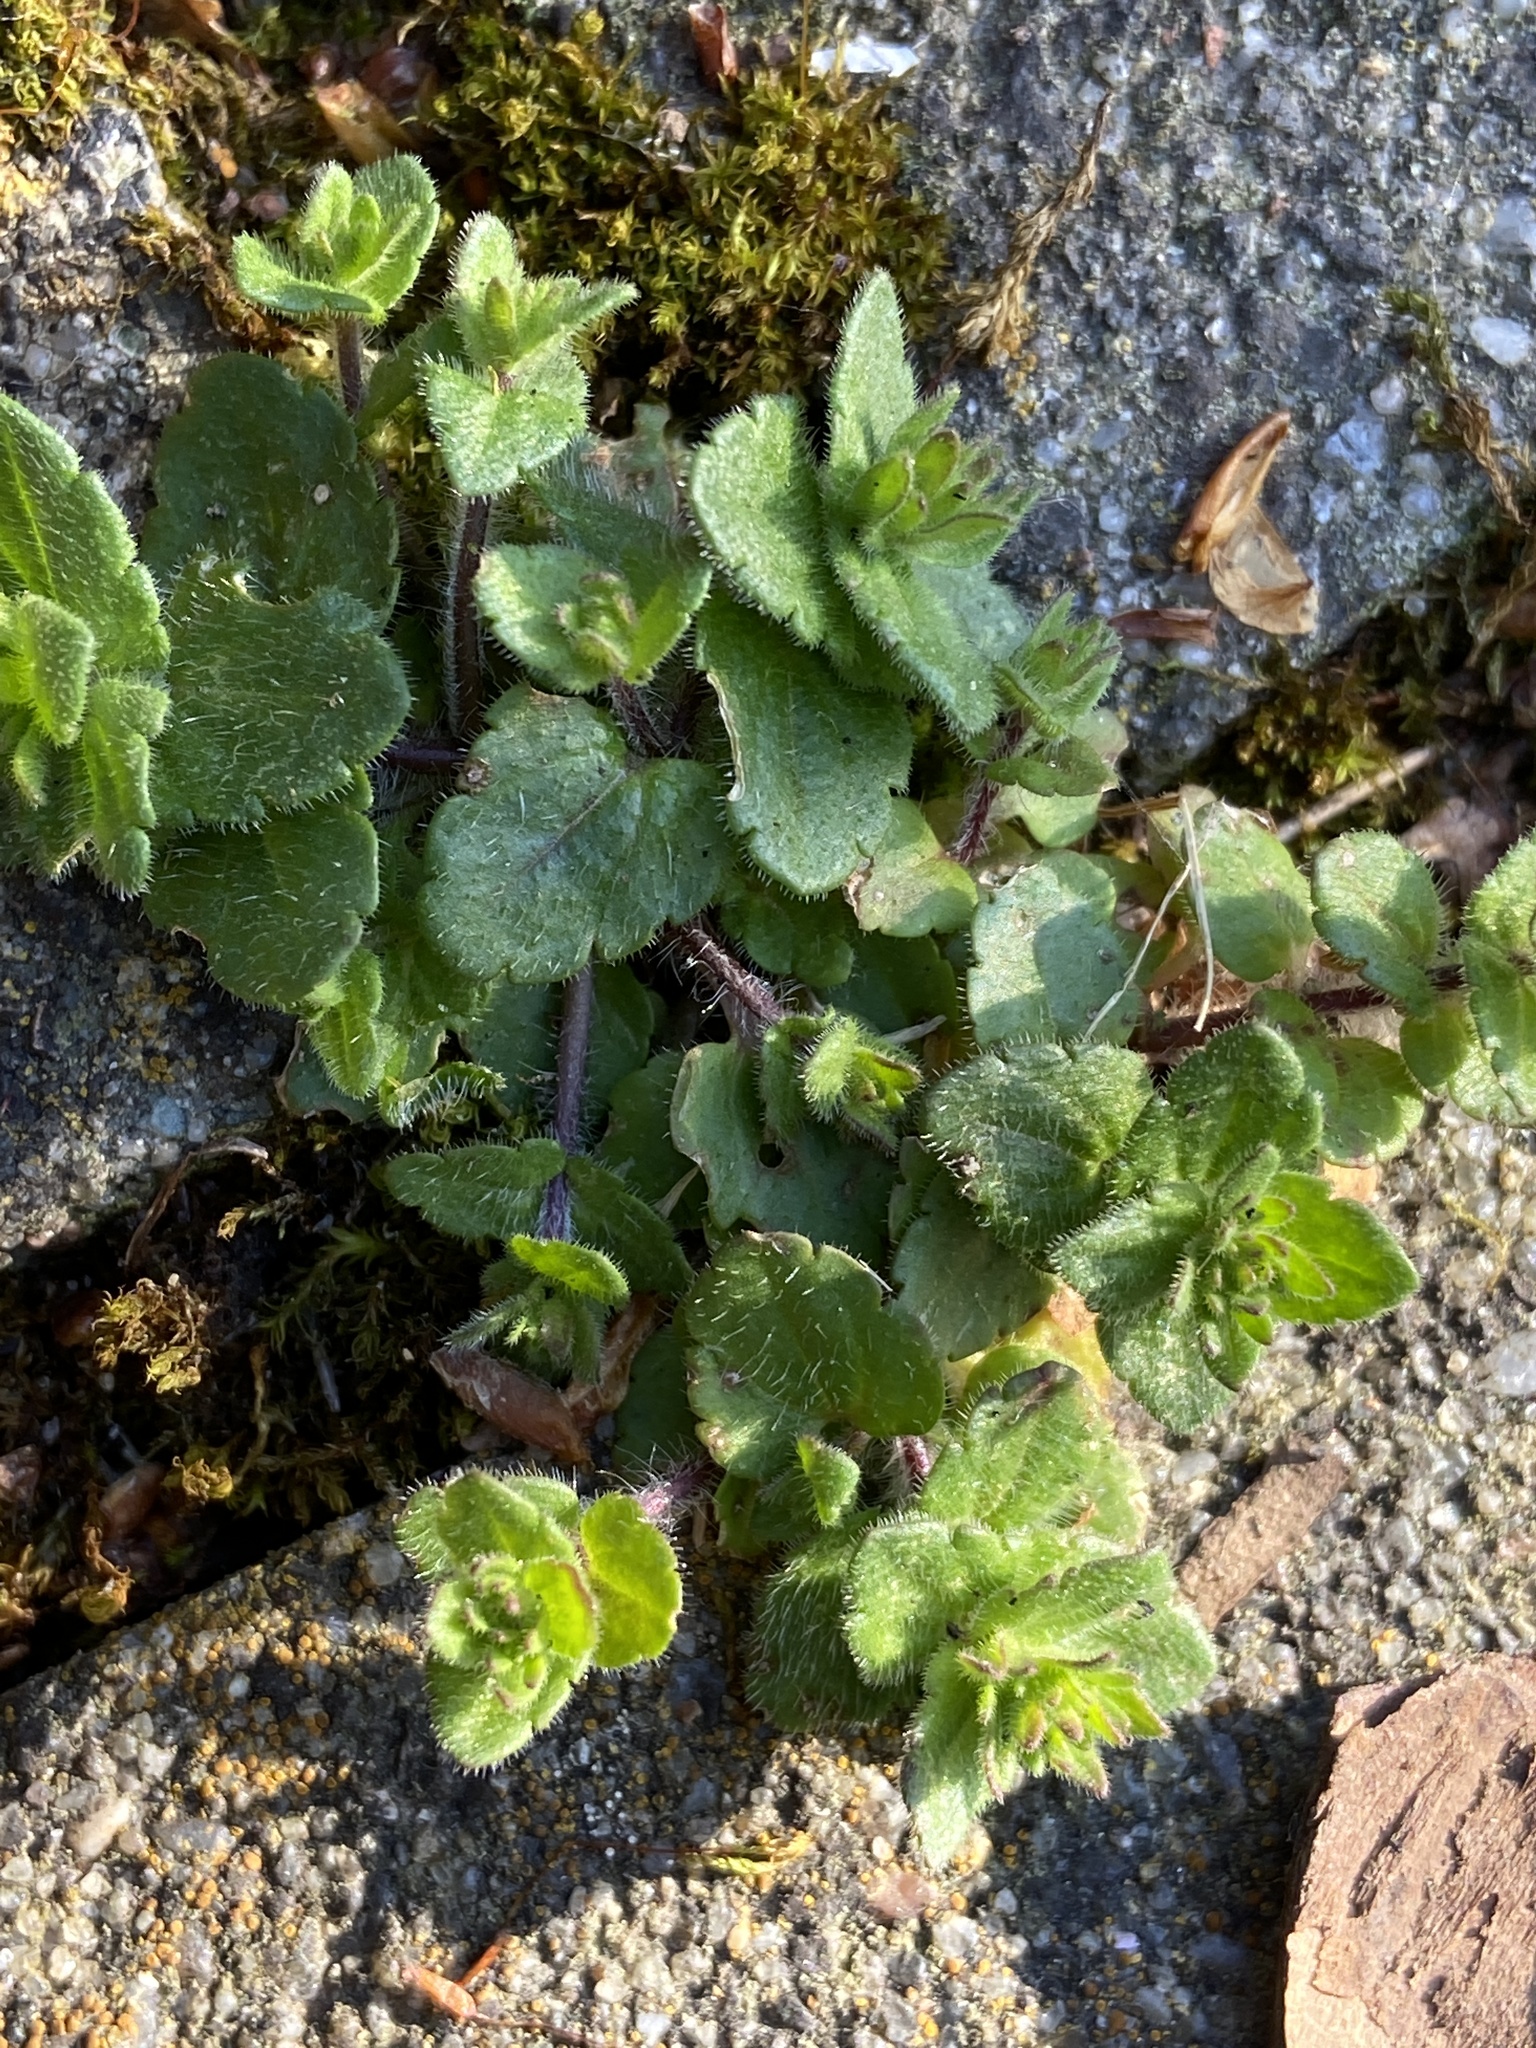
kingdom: Plantae
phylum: Tracheophyta
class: Magnoliopsida
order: Lamiales
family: Plantaginaceae
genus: Veronica
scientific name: Veronica arvensis
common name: Corn speedwell
